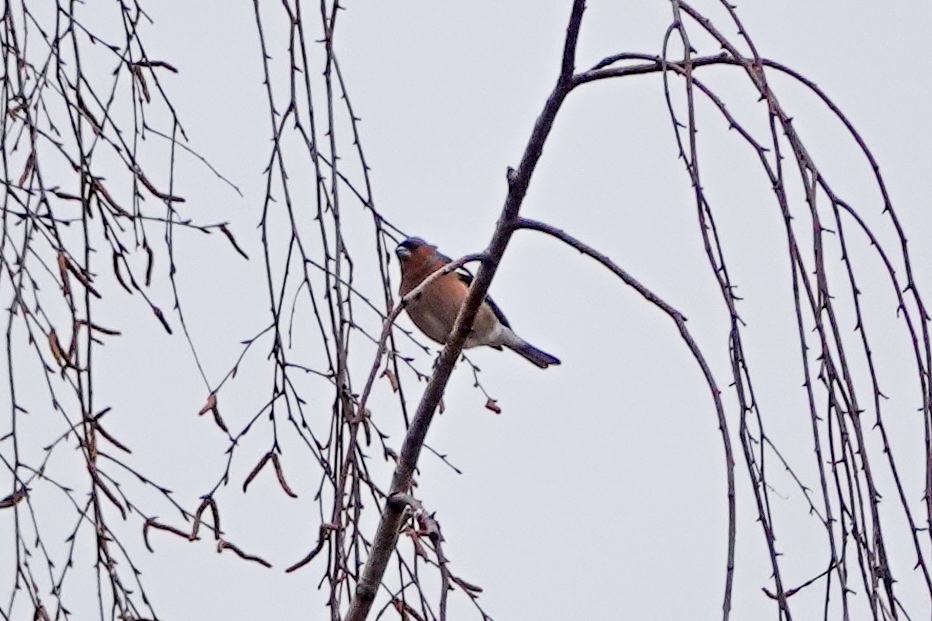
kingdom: Animalia
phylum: Chordata
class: Aves
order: Passeriformes
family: Fringillidae
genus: Fringilla
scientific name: Fringilla coelebs
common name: Common chaffinch
